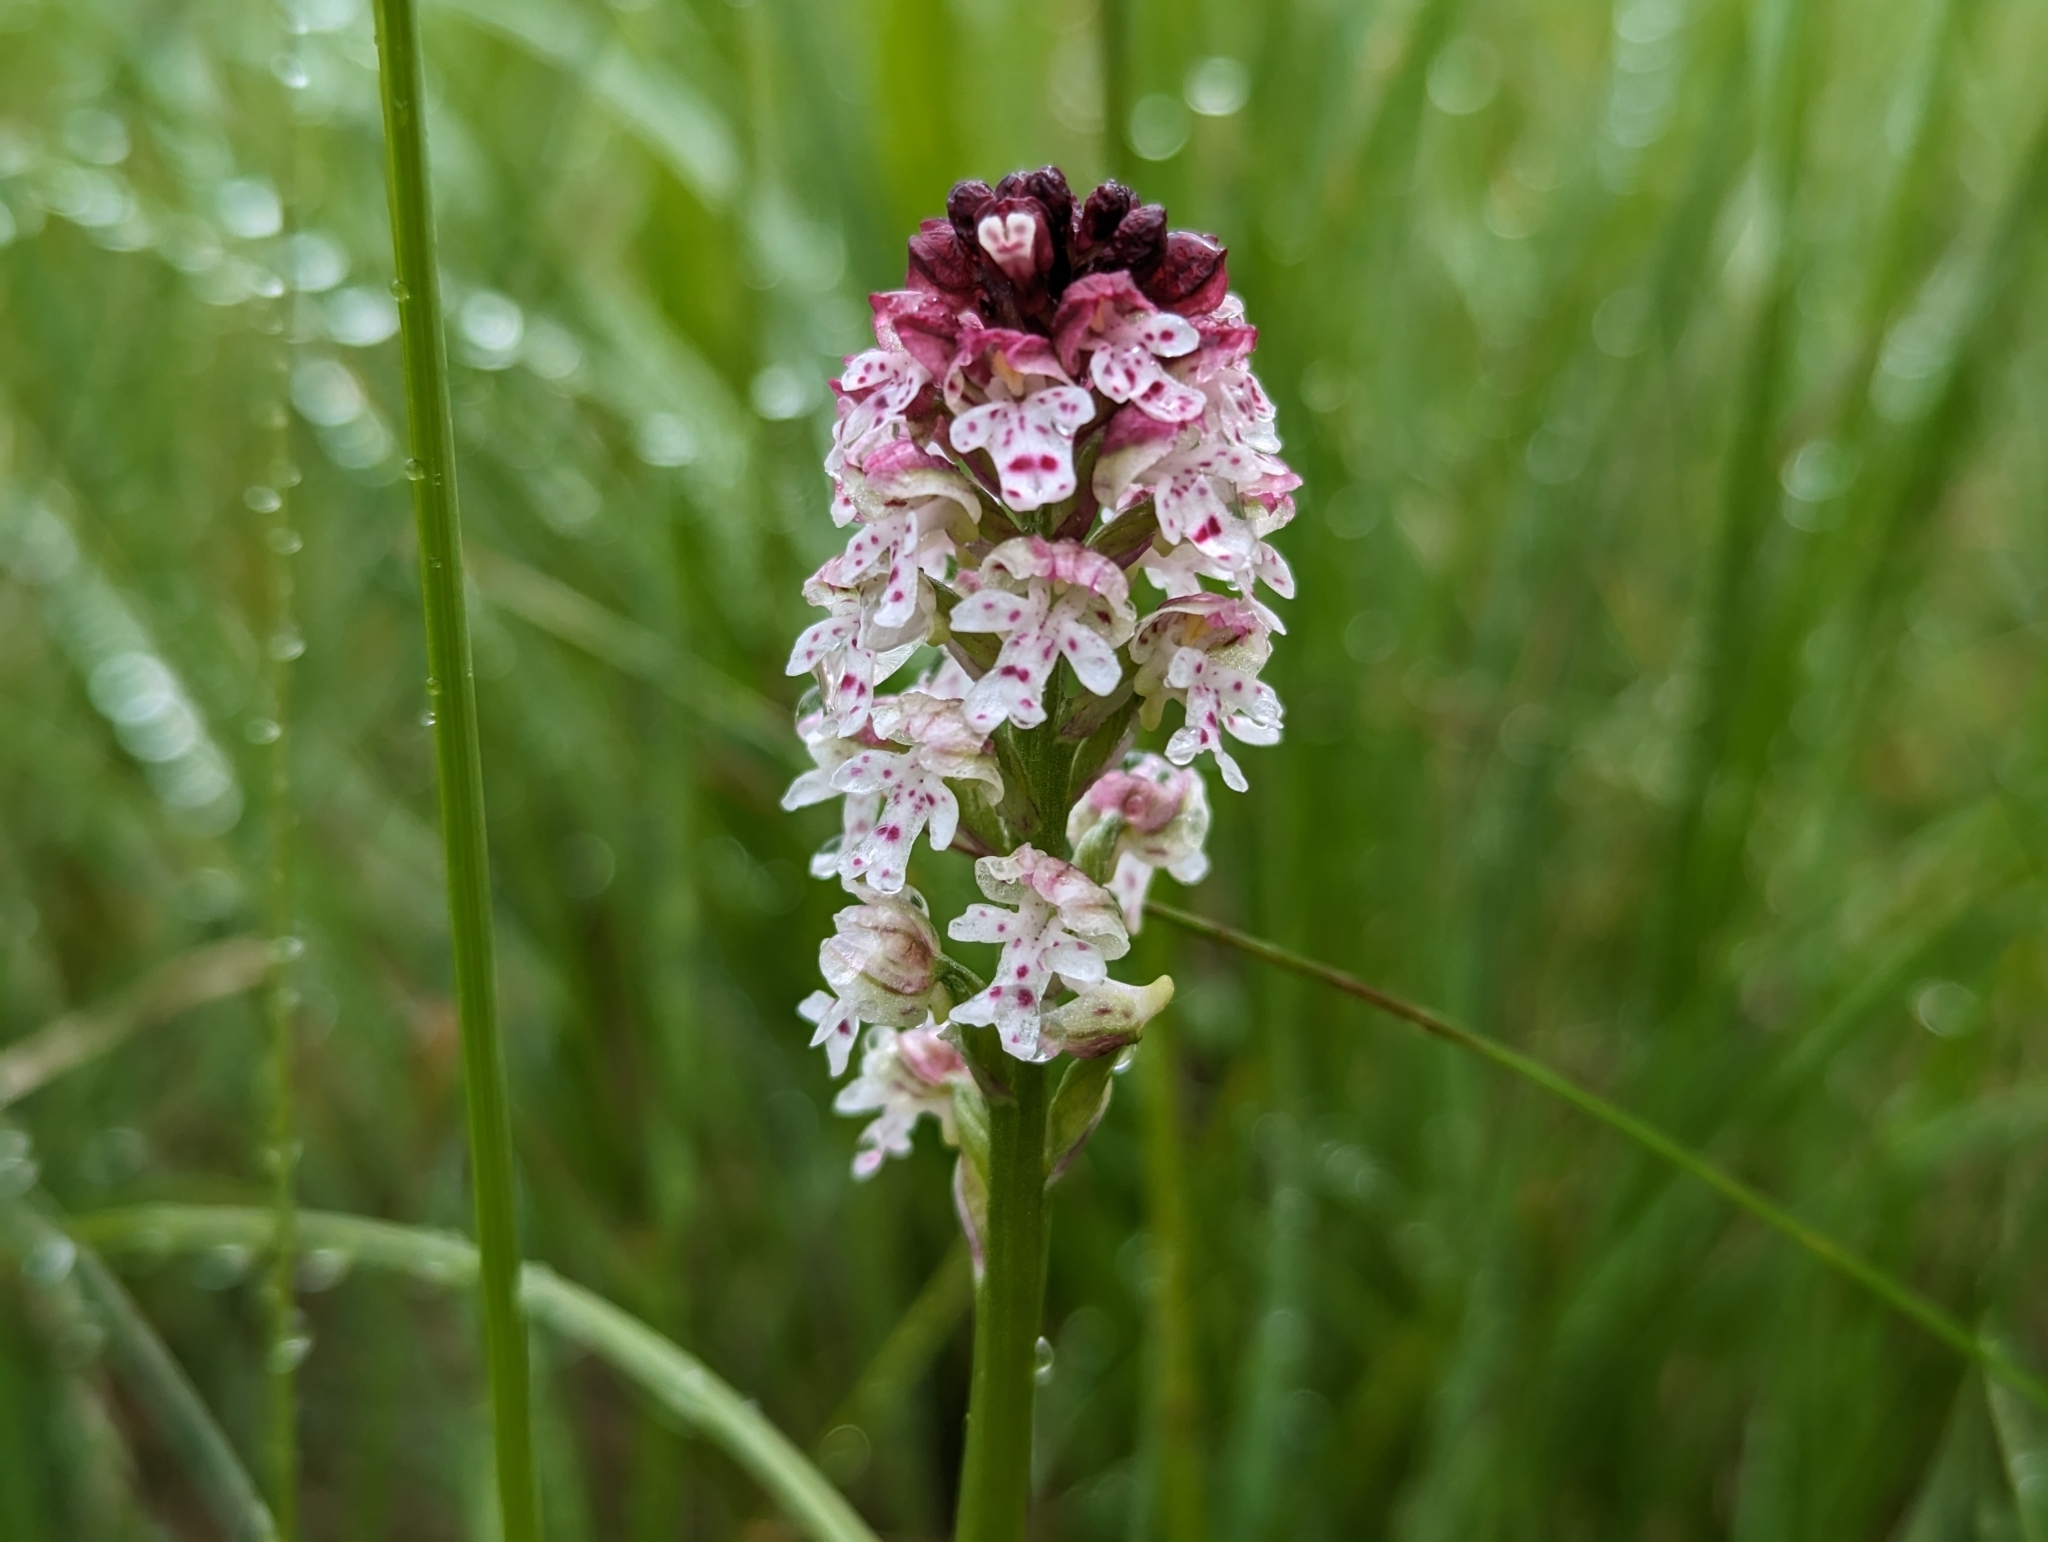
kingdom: Plantae
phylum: Tracheophyta
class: Liliopsida
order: Asparagales
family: Orchidaceae
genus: Neotinea
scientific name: Neotinea ustulata
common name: Burnt orchid
